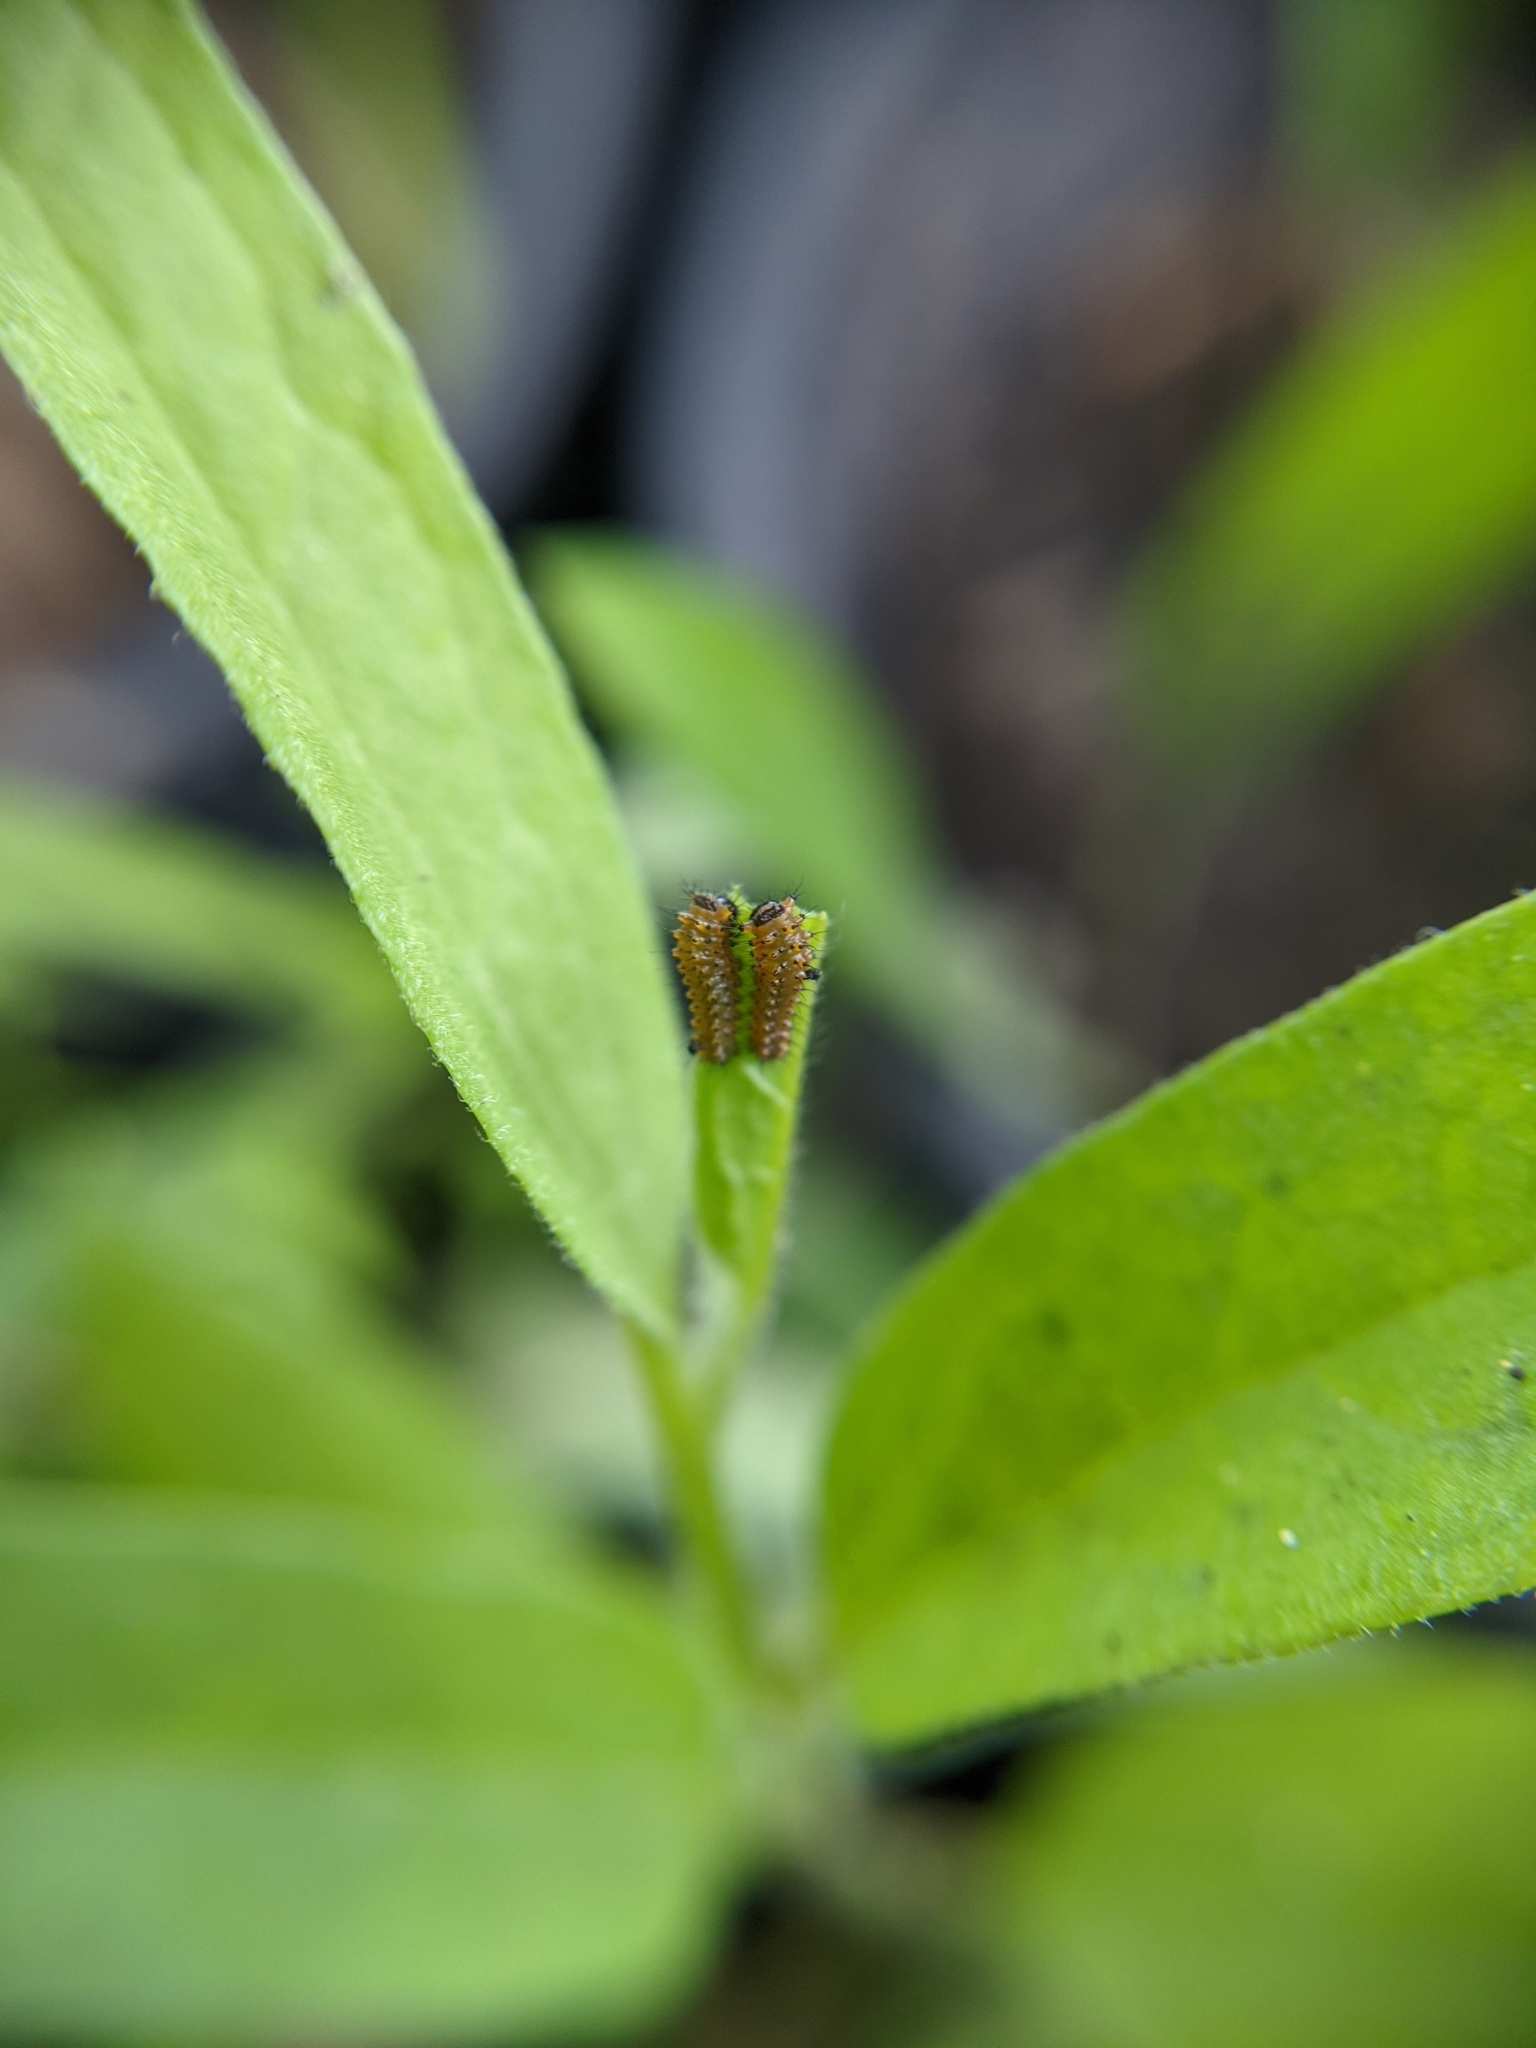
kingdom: Animalia
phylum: Arthropoda
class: Insecta
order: Lepidoptera
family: Papilionidae
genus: Battus
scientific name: Battus philenor
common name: Pipevine swallowtail
